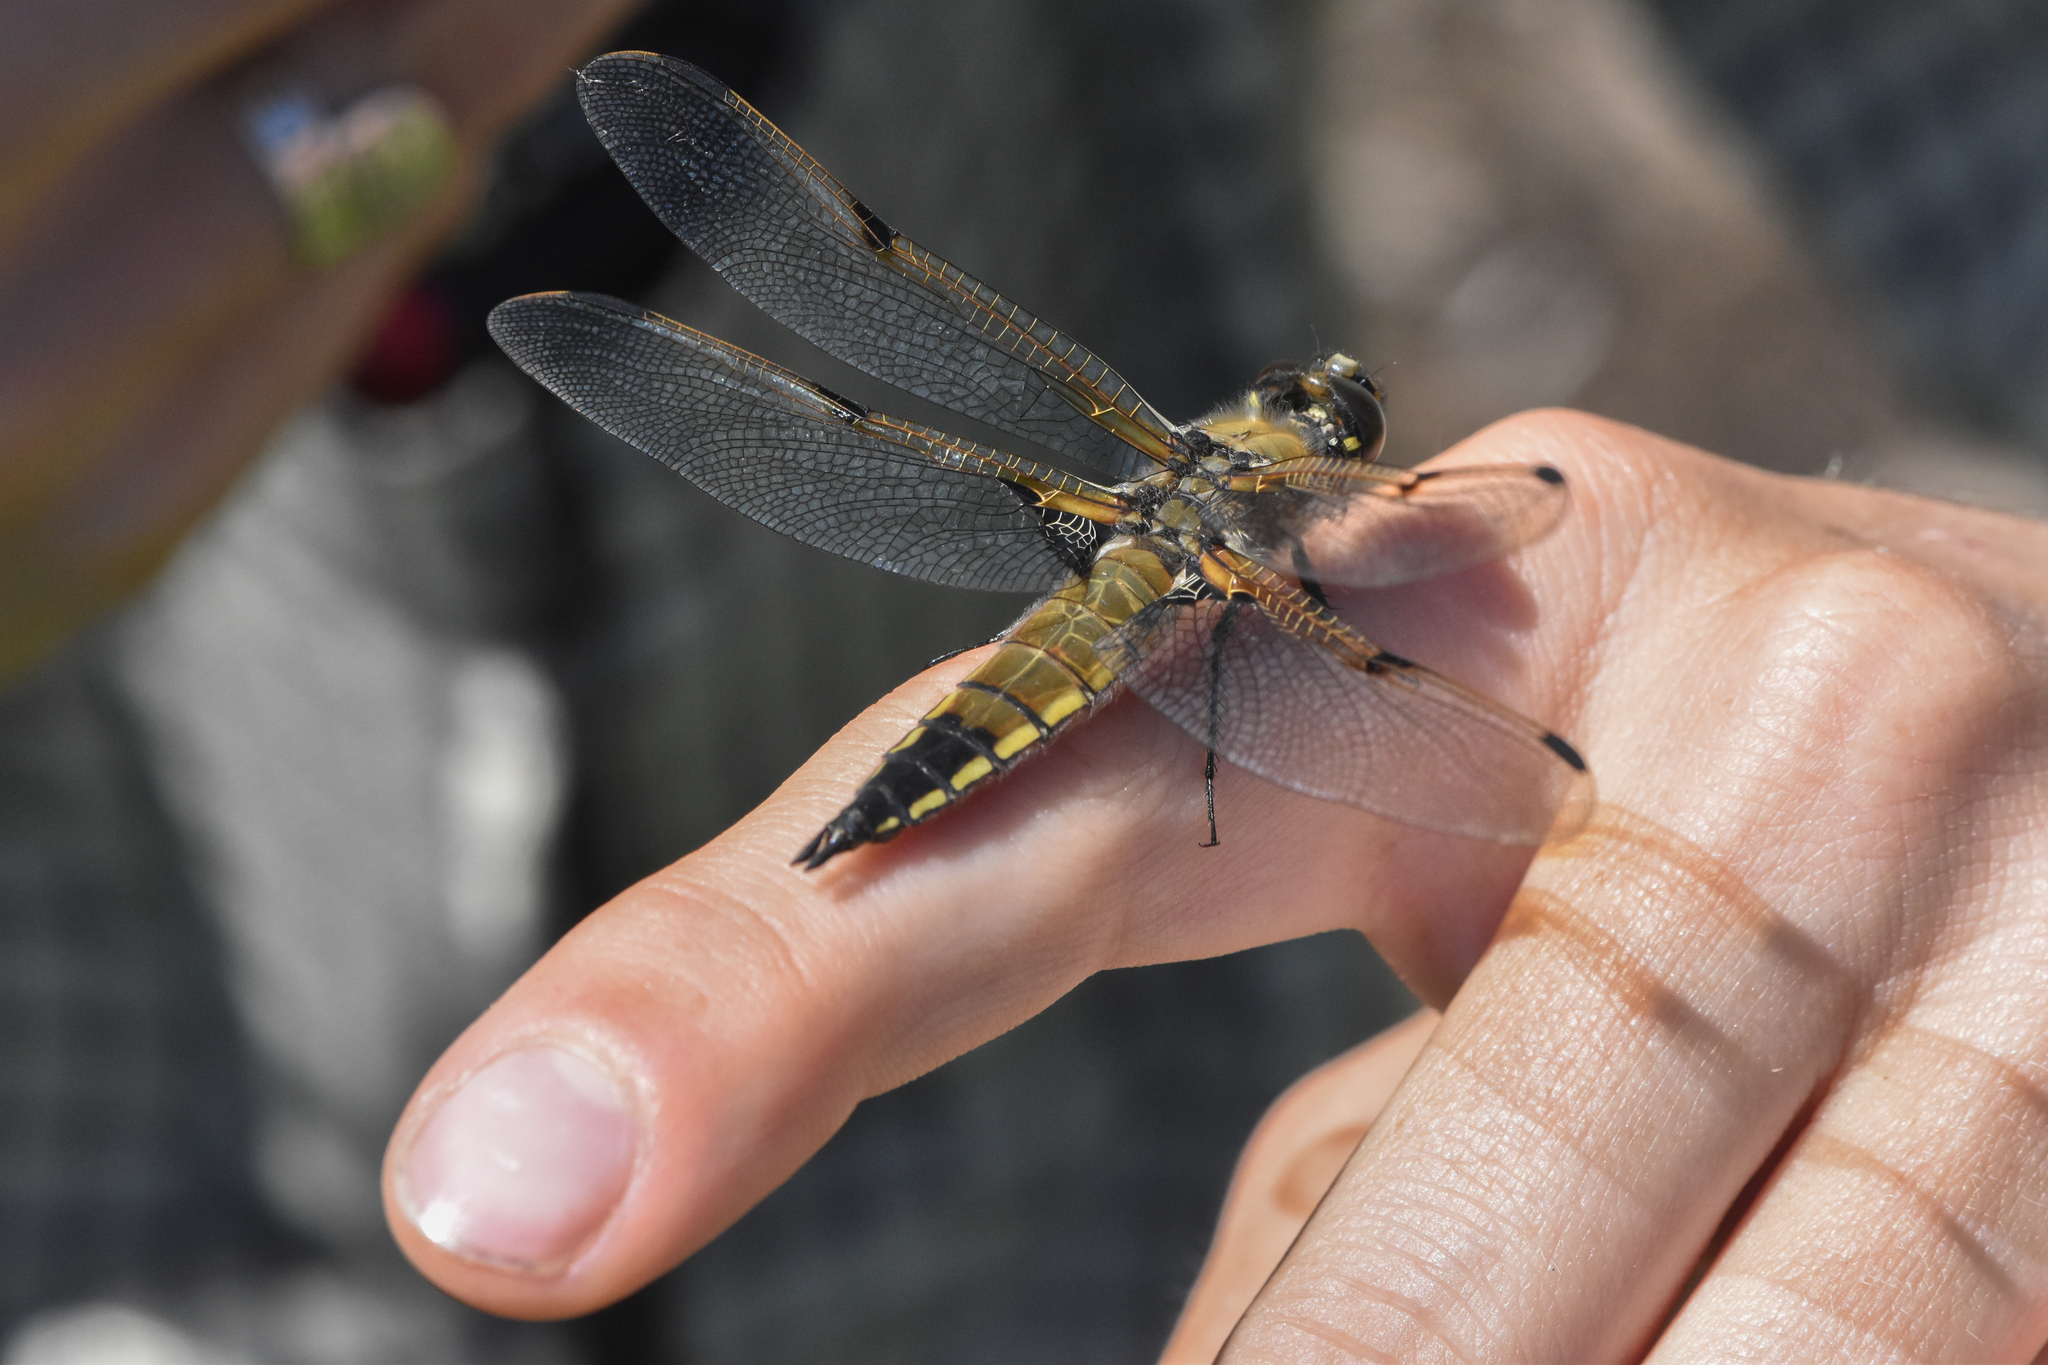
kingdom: Animalia
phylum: Arthropoda
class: Insecta
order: Odonata
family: Libellulidae
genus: Libellula
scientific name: Libellula quadrimaculata
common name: Four-spotted chaser
